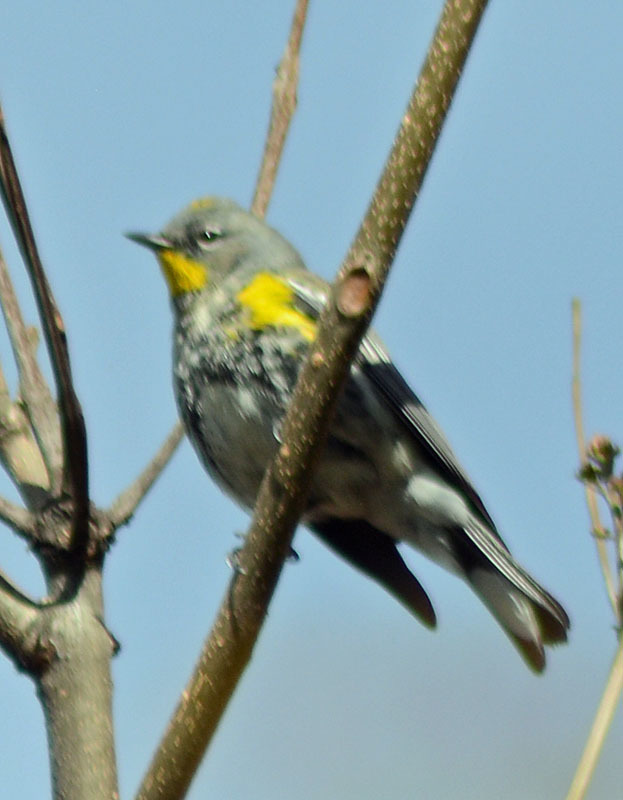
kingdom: Animalia
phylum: Chordata
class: Aves
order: Passeriformes
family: Parulidae
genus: Setophaga
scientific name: Setophaga auduboni
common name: Audubon's warbler
